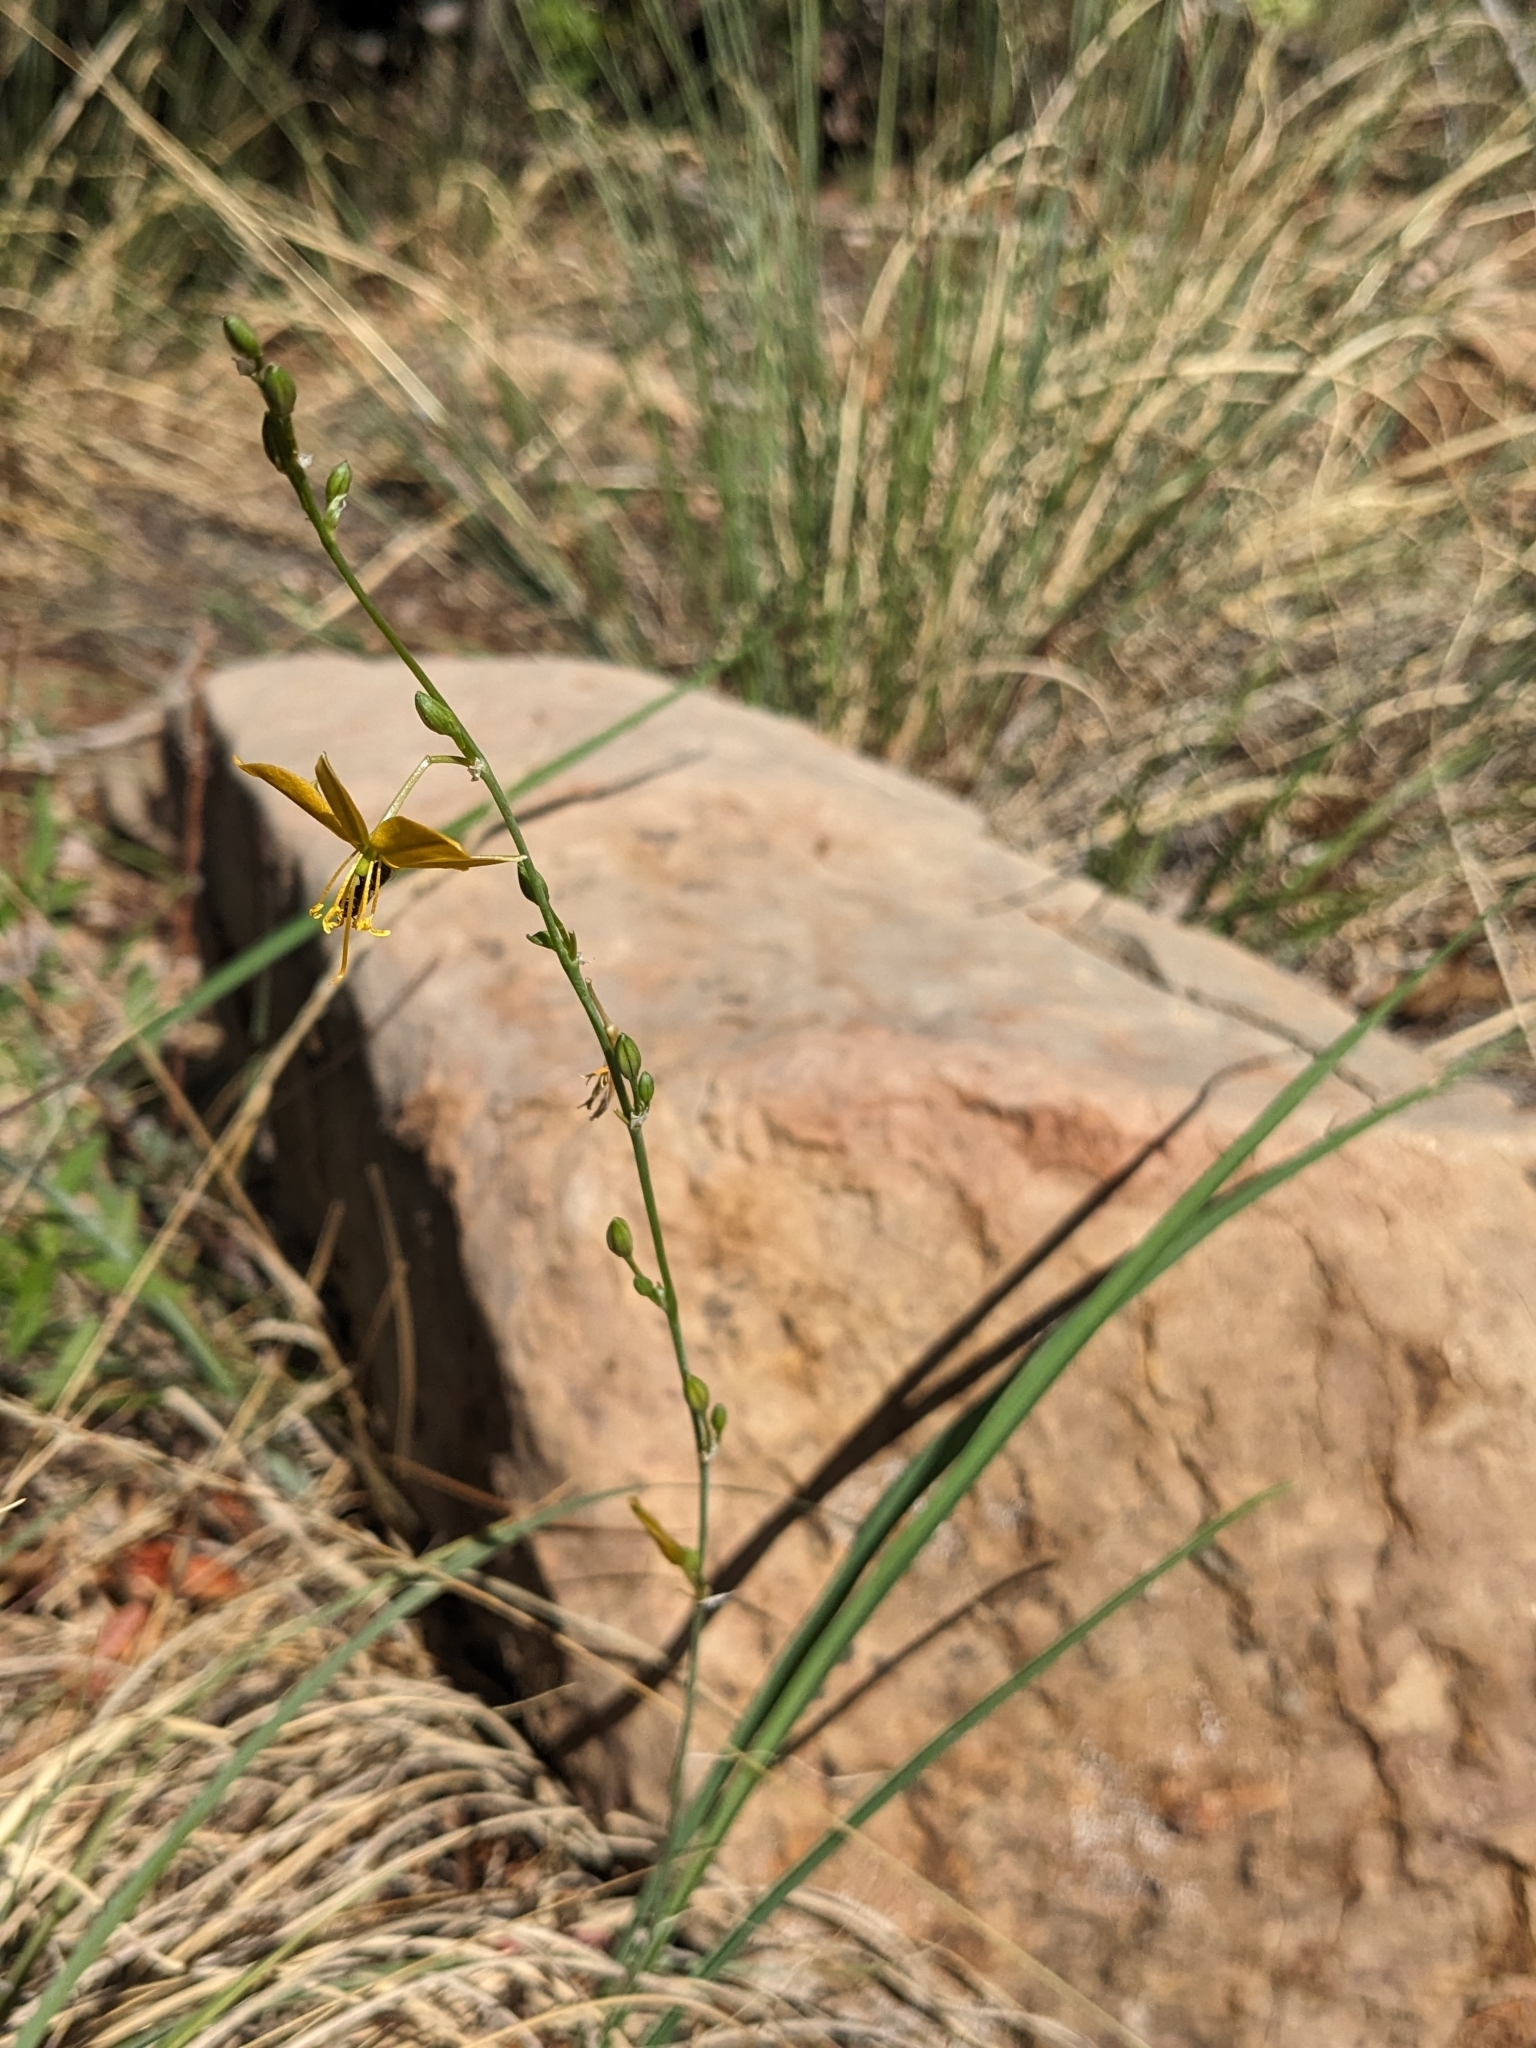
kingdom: Plantae
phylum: Tracheophyta
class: Liliopsida
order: Asparagales
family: Asparagaceae
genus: Echeandia
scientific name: Echeandia flavescens
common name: Amberlily
